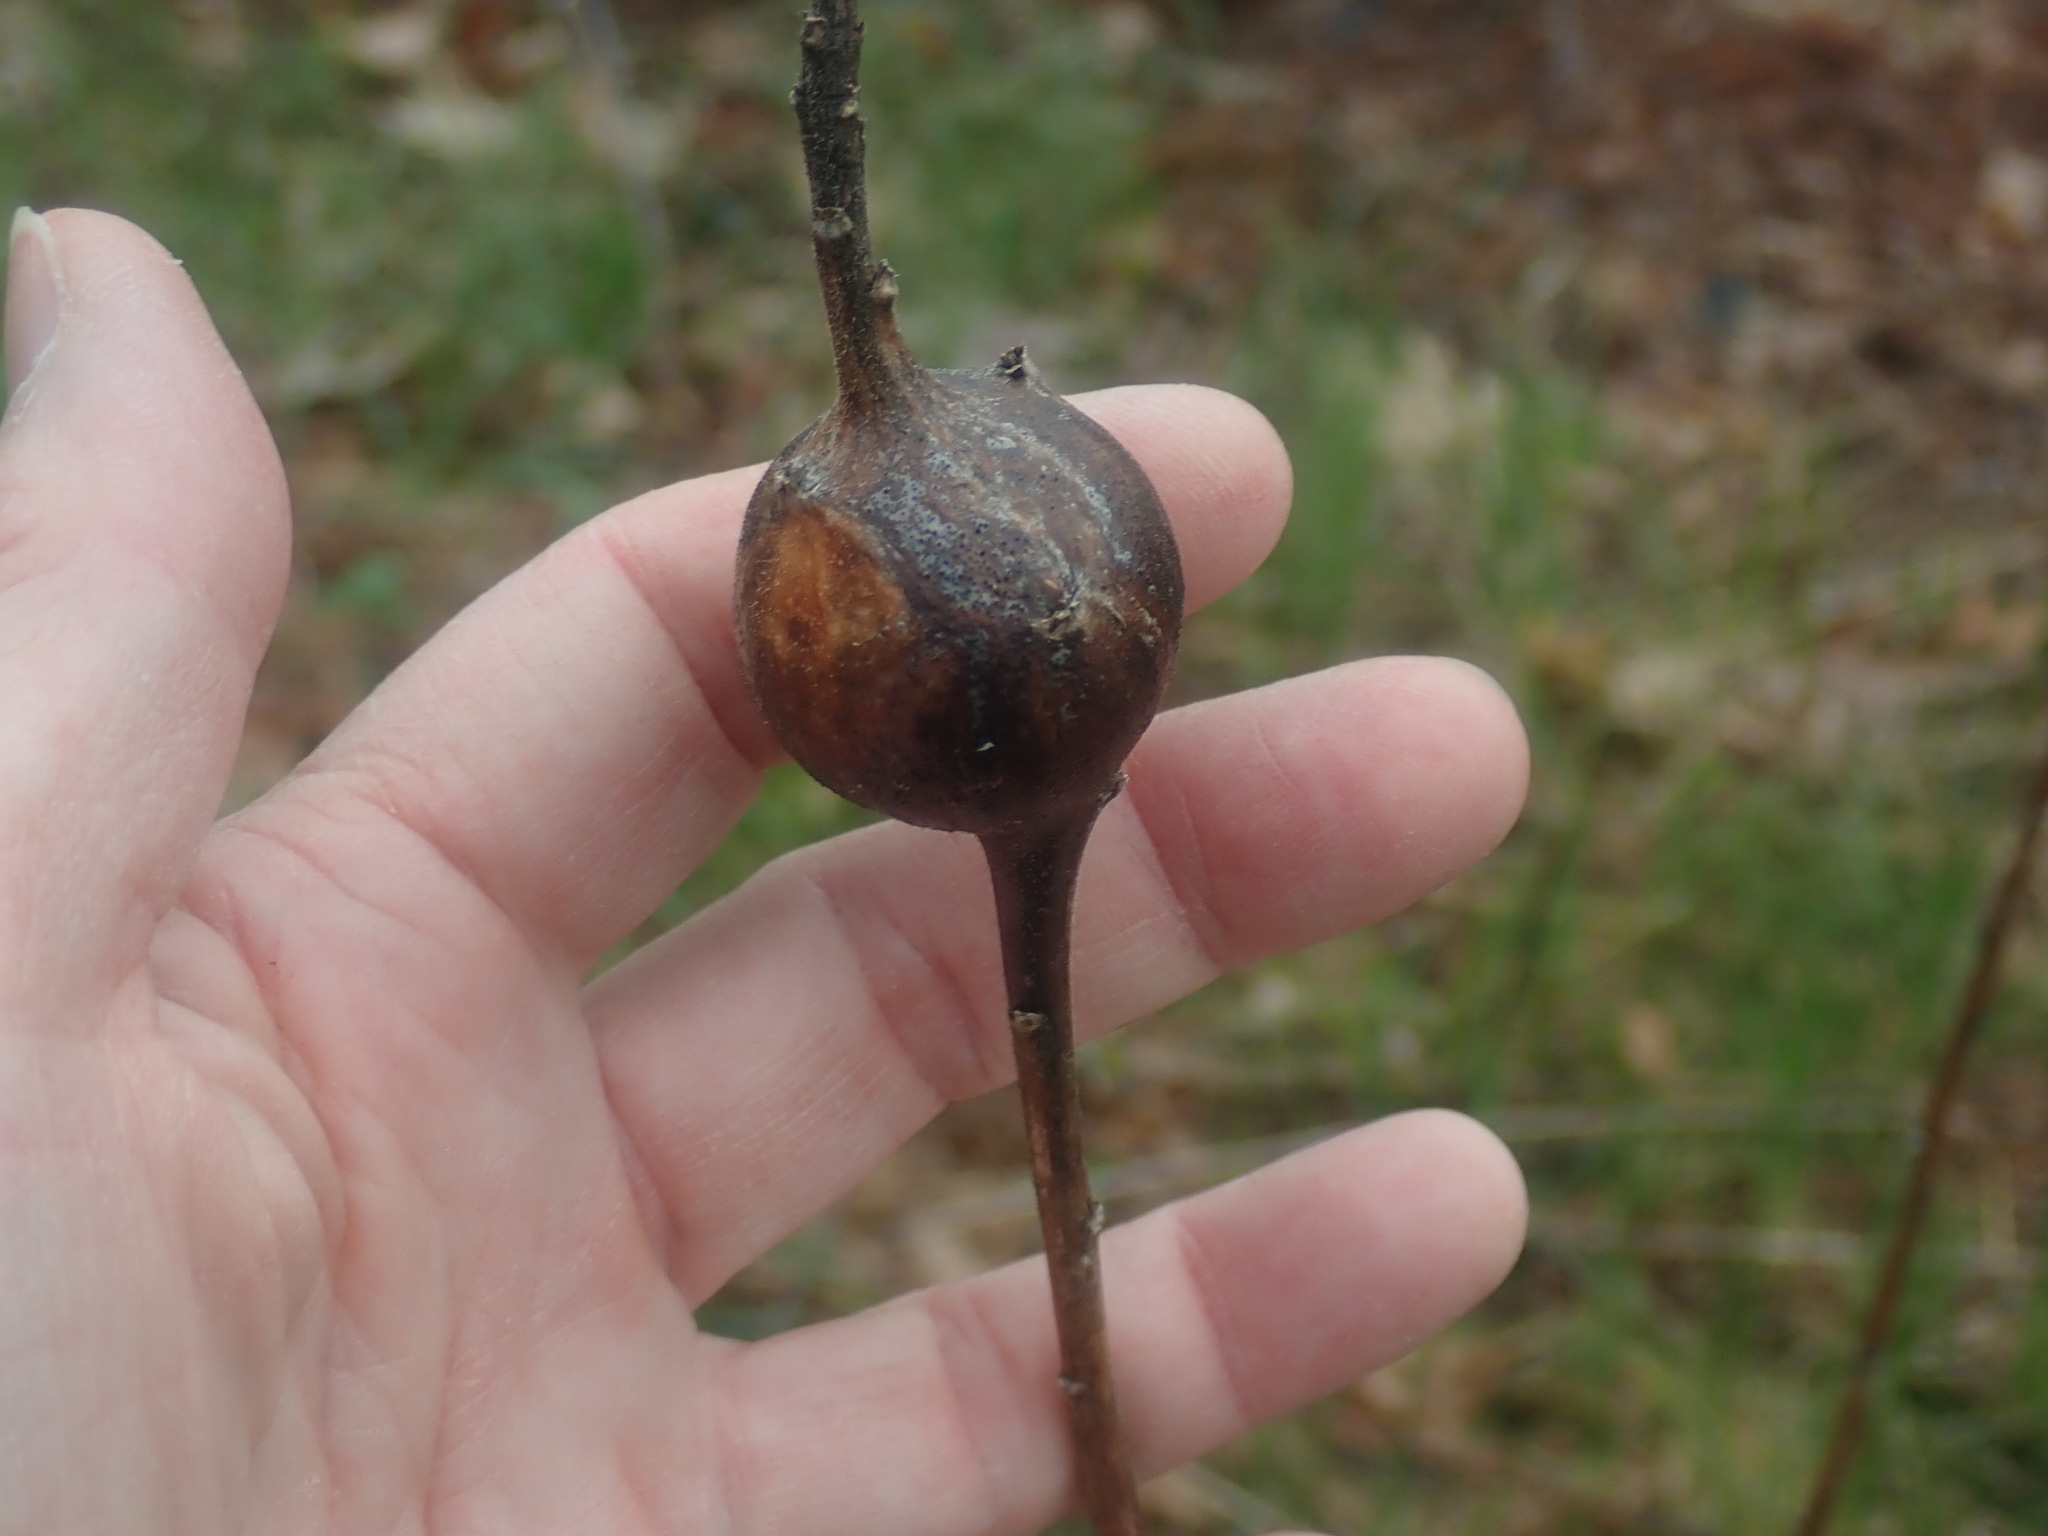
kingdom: Animalia
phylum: Arthropoda
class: Insecta
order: Diptera
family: Tephritidae
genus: Eurosta
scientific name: Eurosta solidaginis
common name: Goldenrod gall fly
